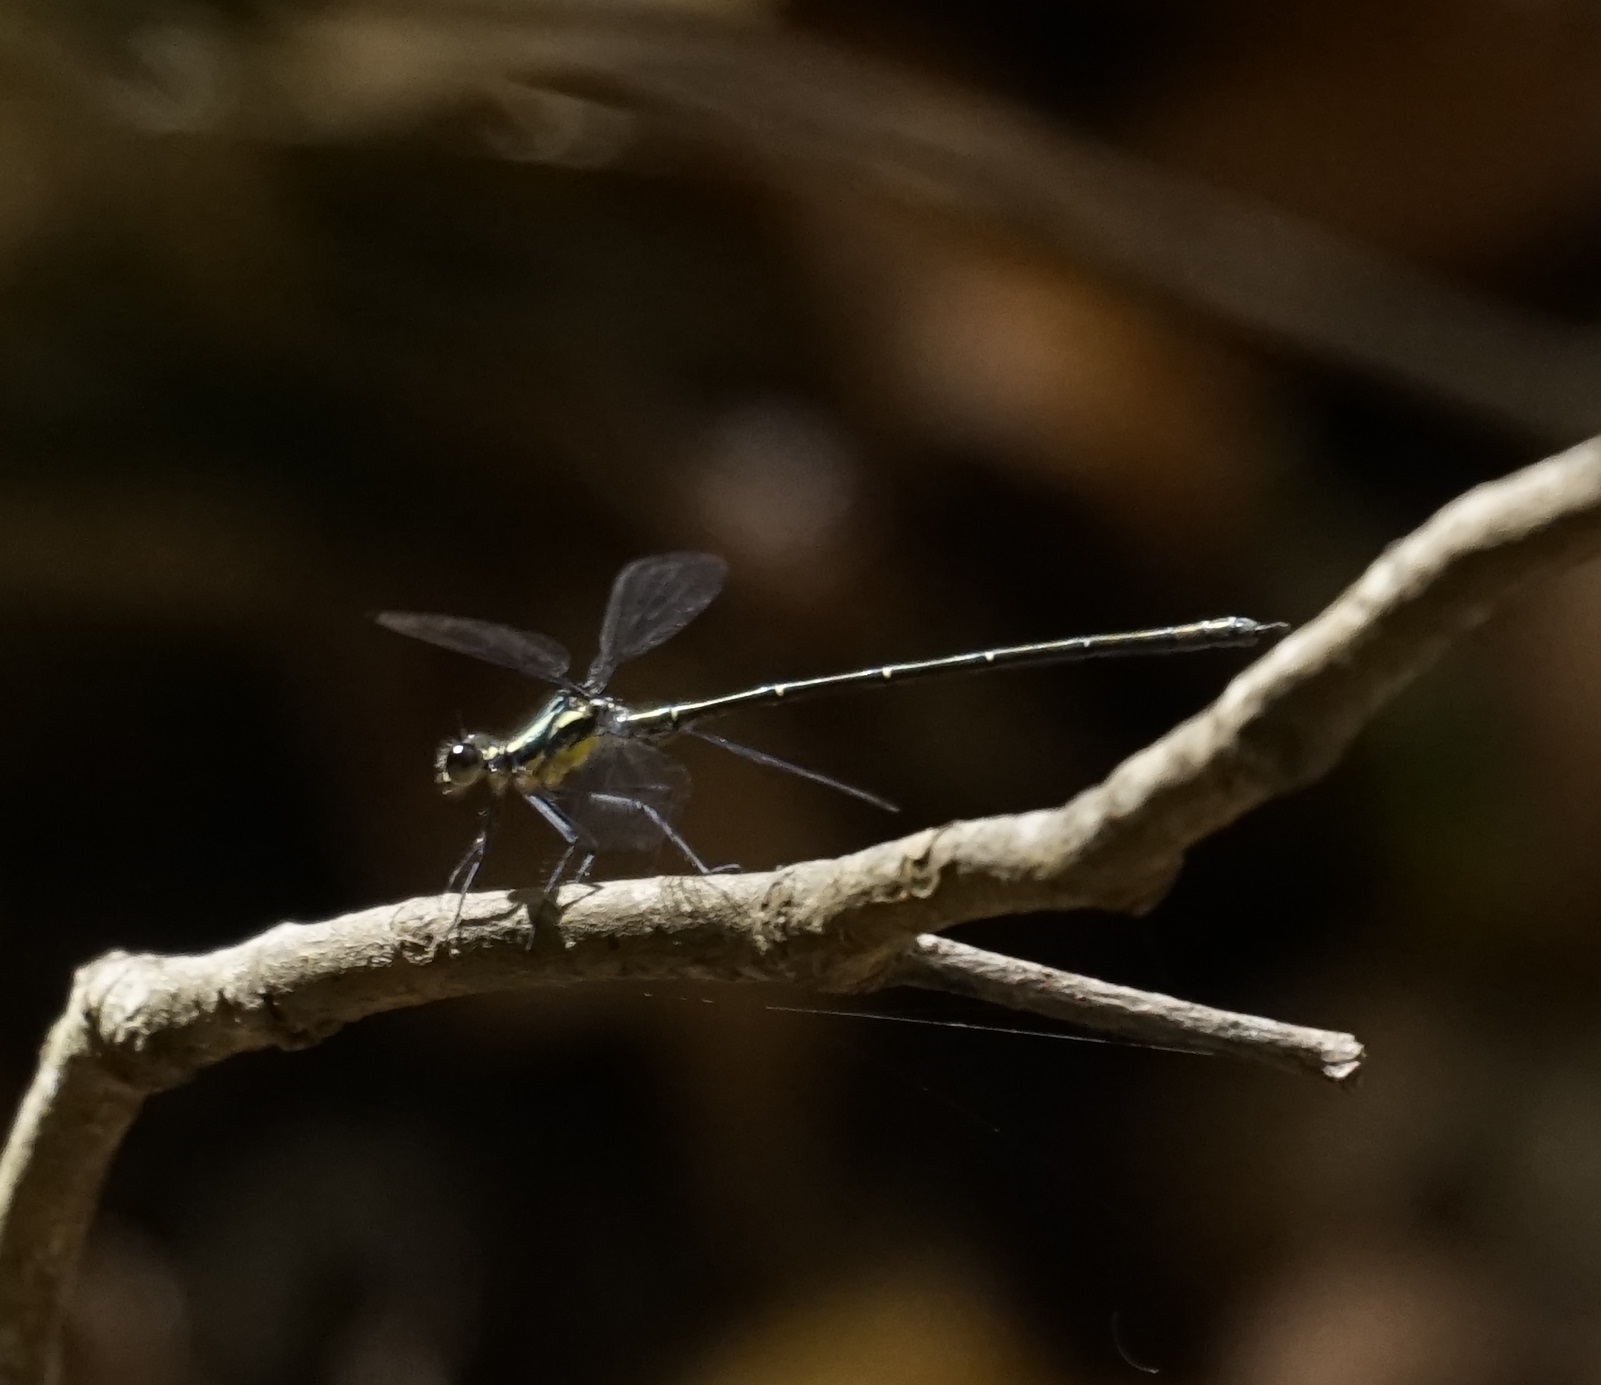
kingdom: Animalia
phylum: Arthropoda
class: Insecta
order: Odonata
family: Argiolestidae
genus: Austroargiolestes
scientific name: Austroargiolestes icteromelas
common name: Common flatwing
